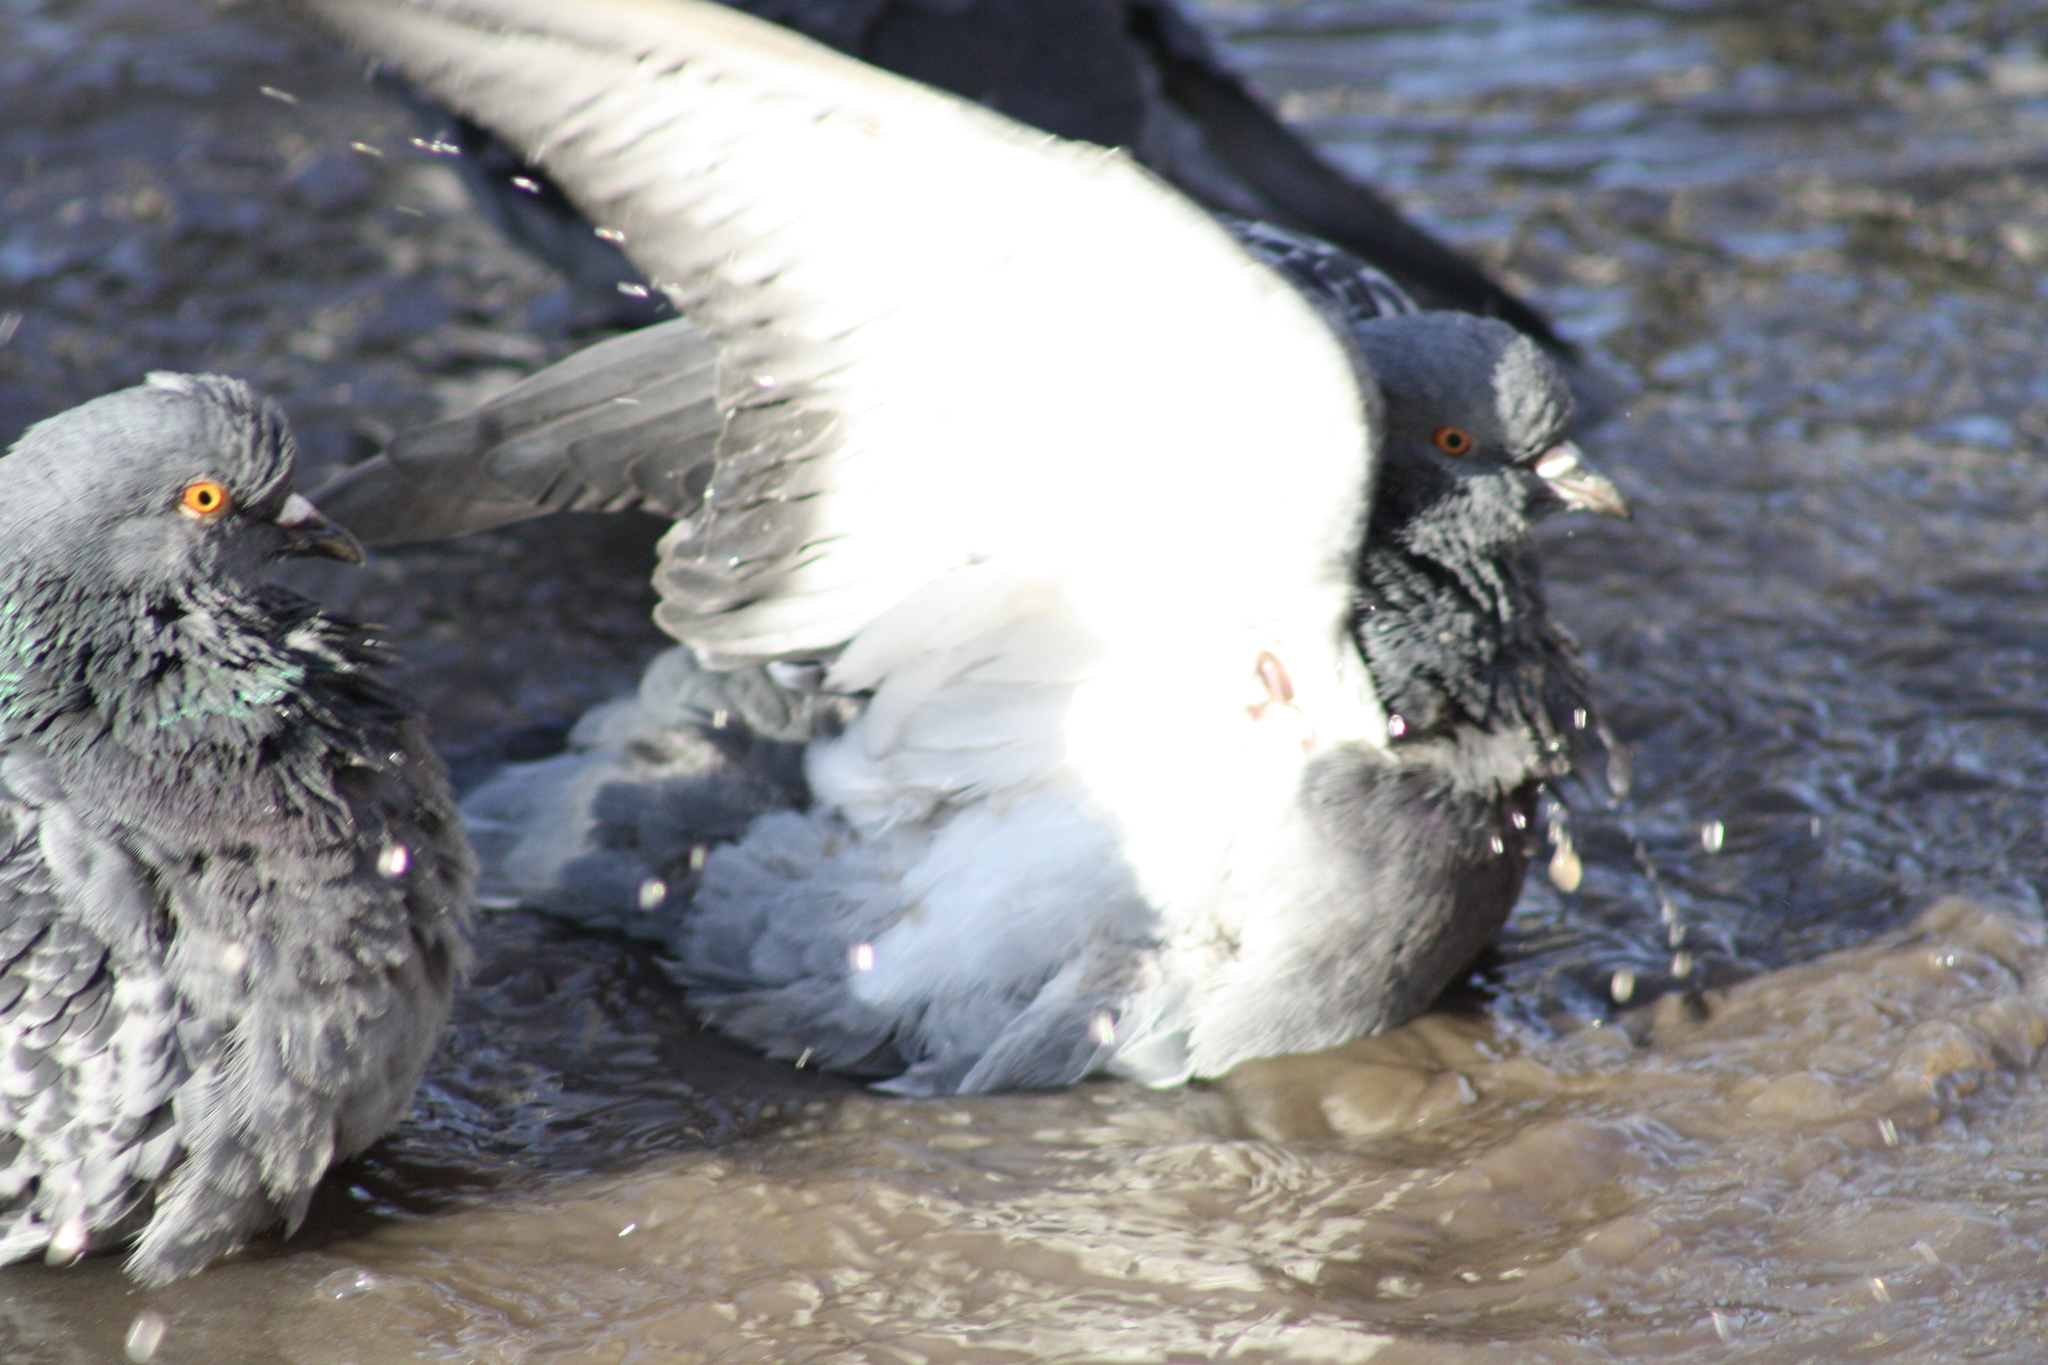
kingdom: Animalia
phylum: Chordata
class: Aves
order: Columbiformes
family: Columbidae
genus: Columba
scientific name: Columba livia
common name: Rock pigeon
